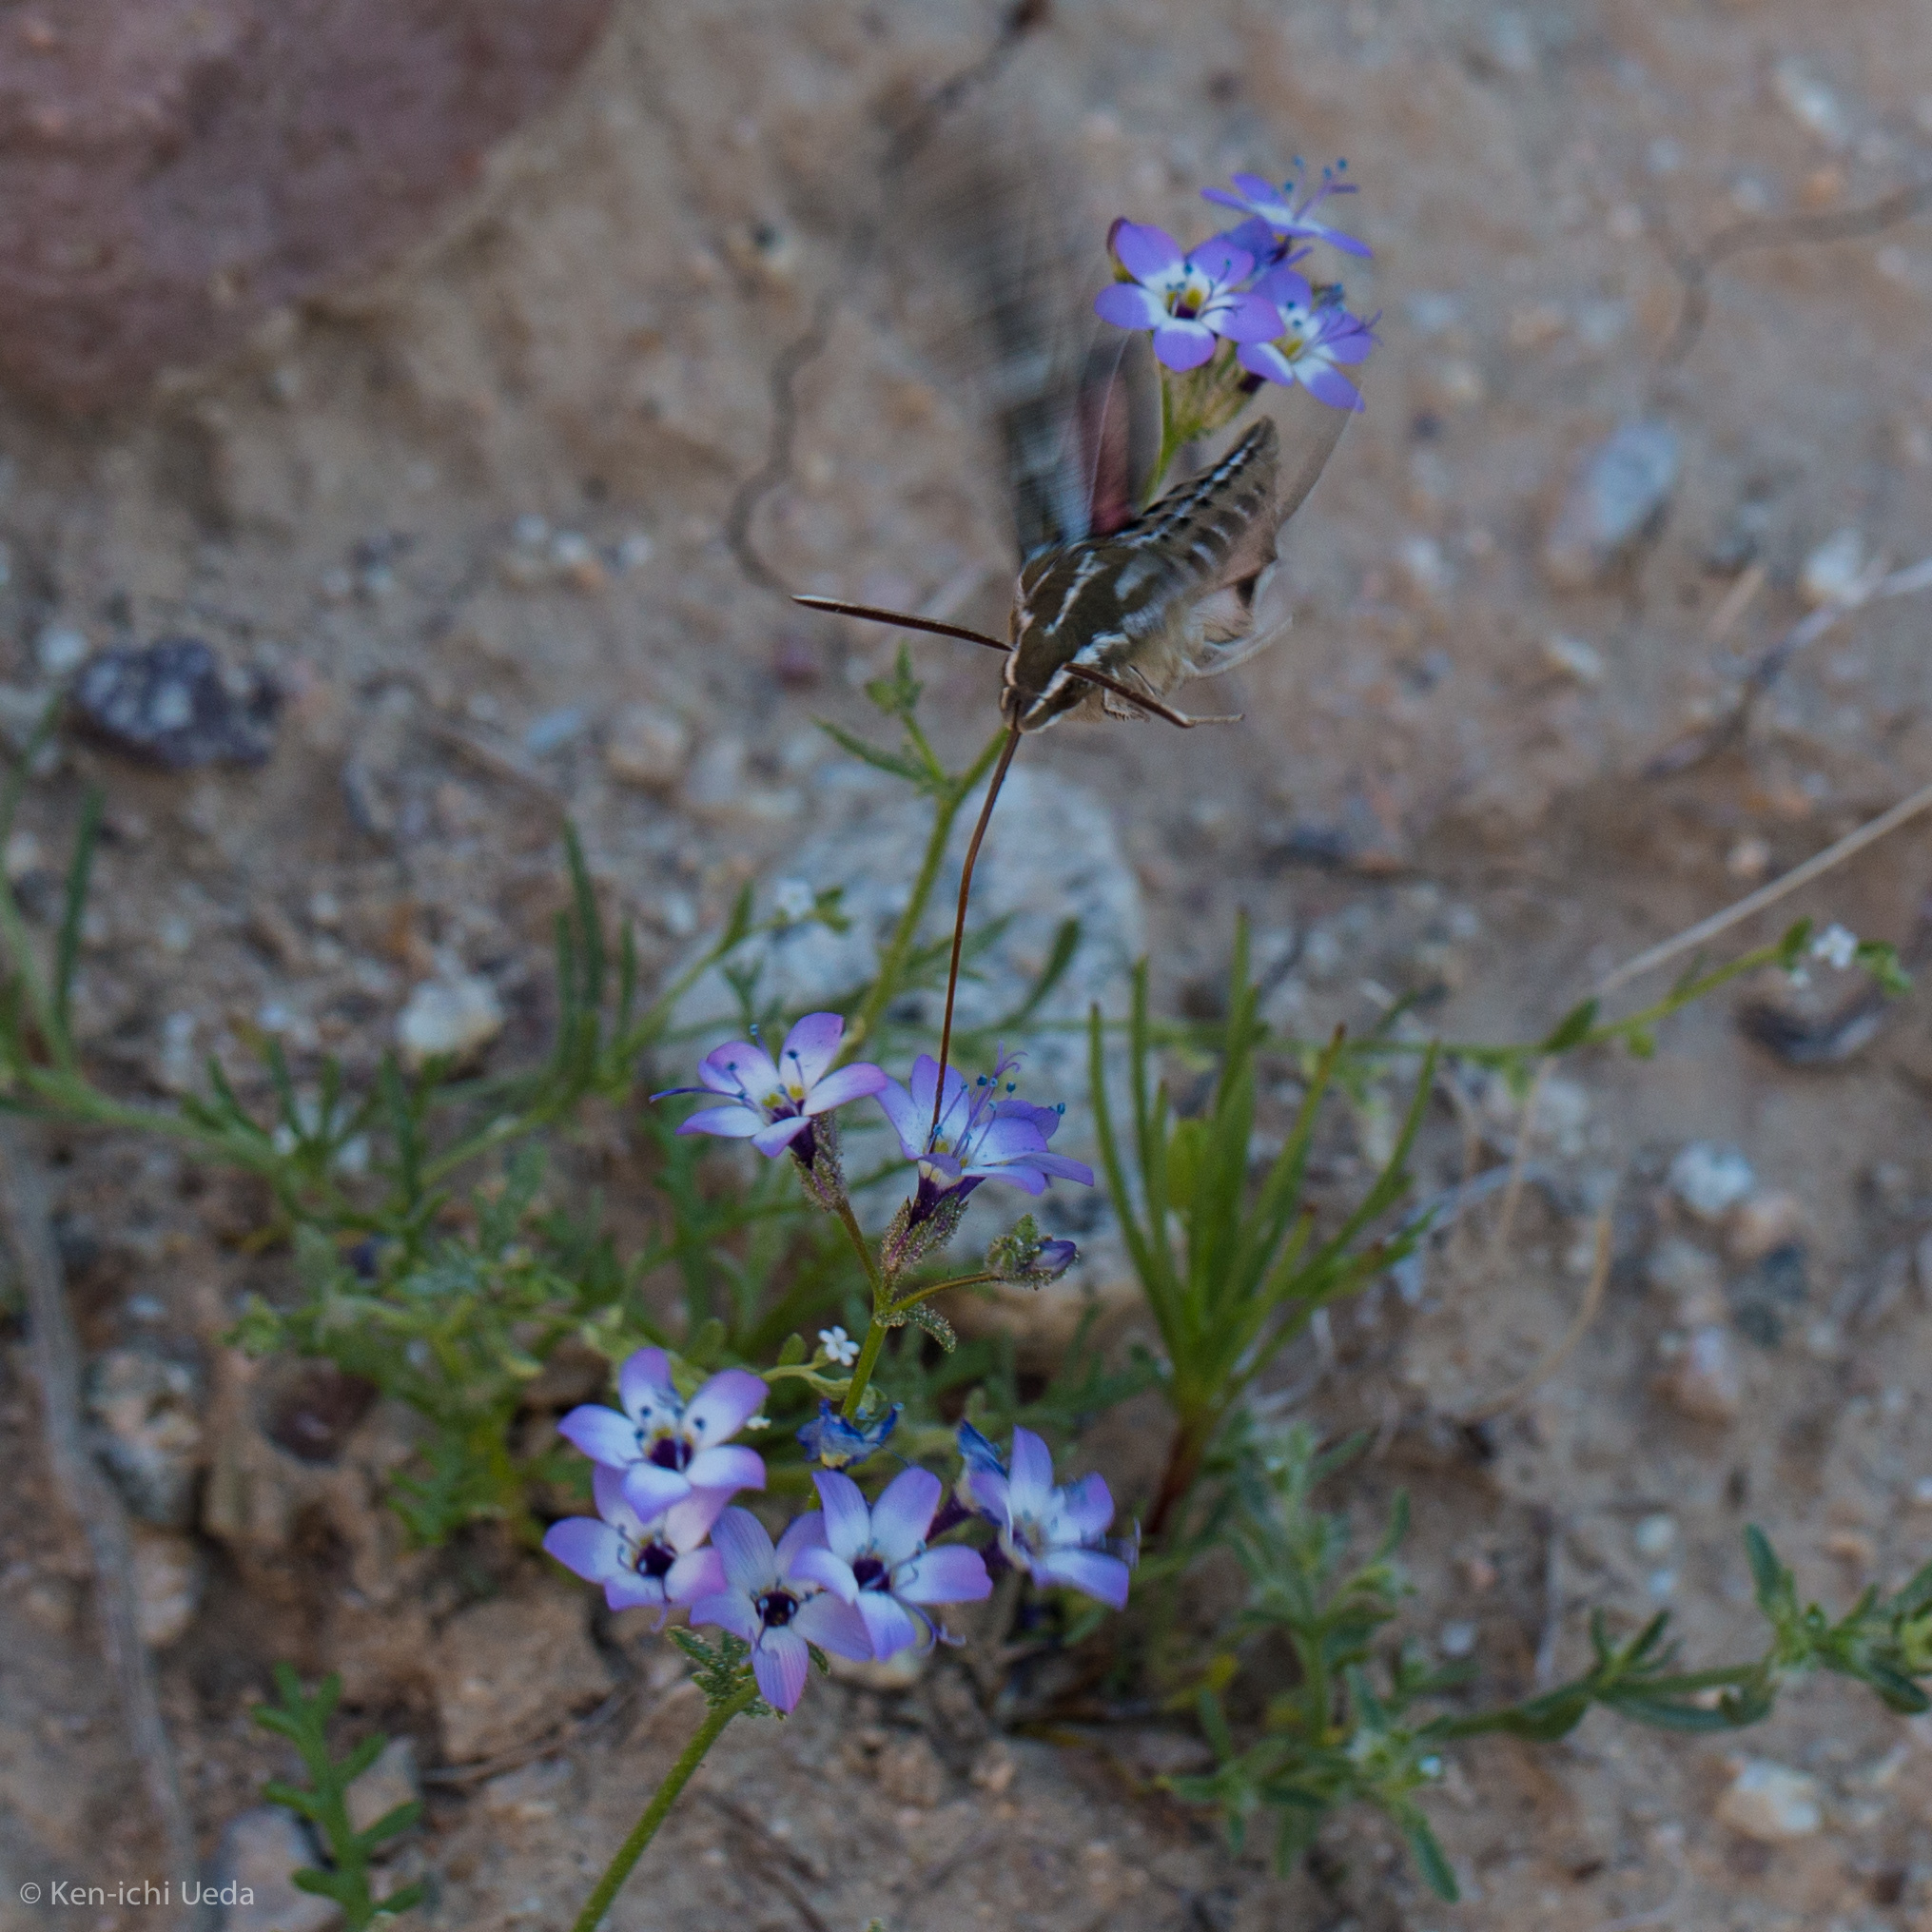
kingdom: Animalia
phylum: Arthropoda
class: Insecta
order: Lepidoptera
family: Sphingidae
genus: Hyles
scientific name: Hyles lineata
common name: White-lined sphinx
